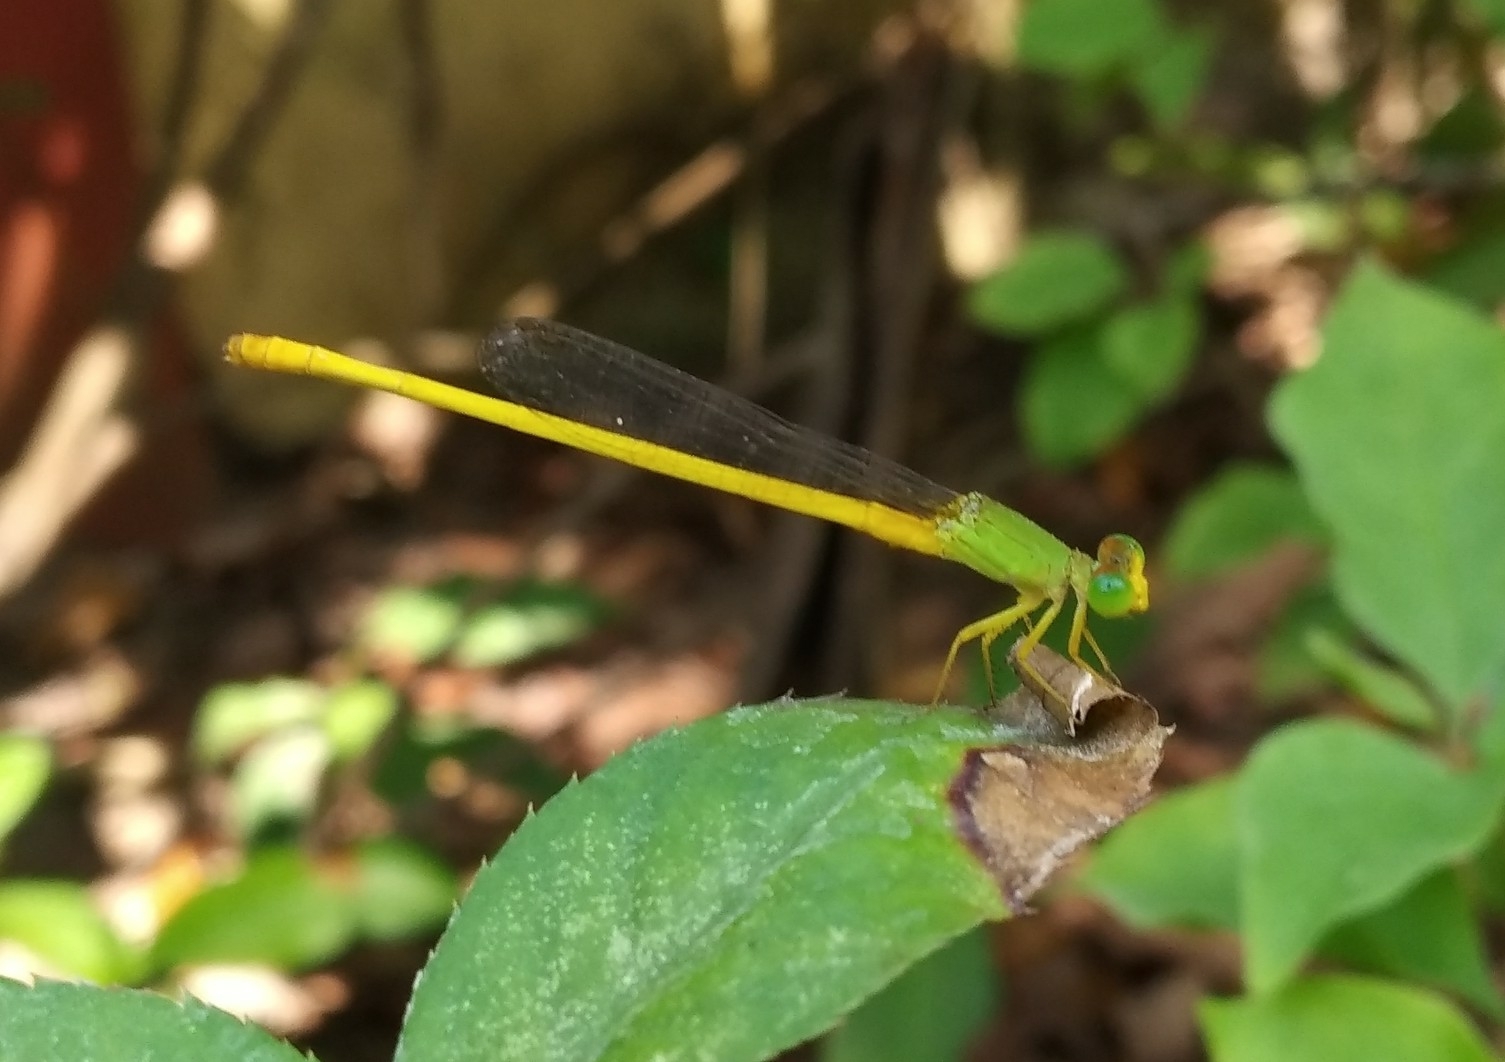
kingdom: Animalia
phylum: Arthropoda
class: Insecta
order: Odonata
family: Coenagrionidae
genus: Ceriagrion
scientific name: Ceriagrion coromandelianum
